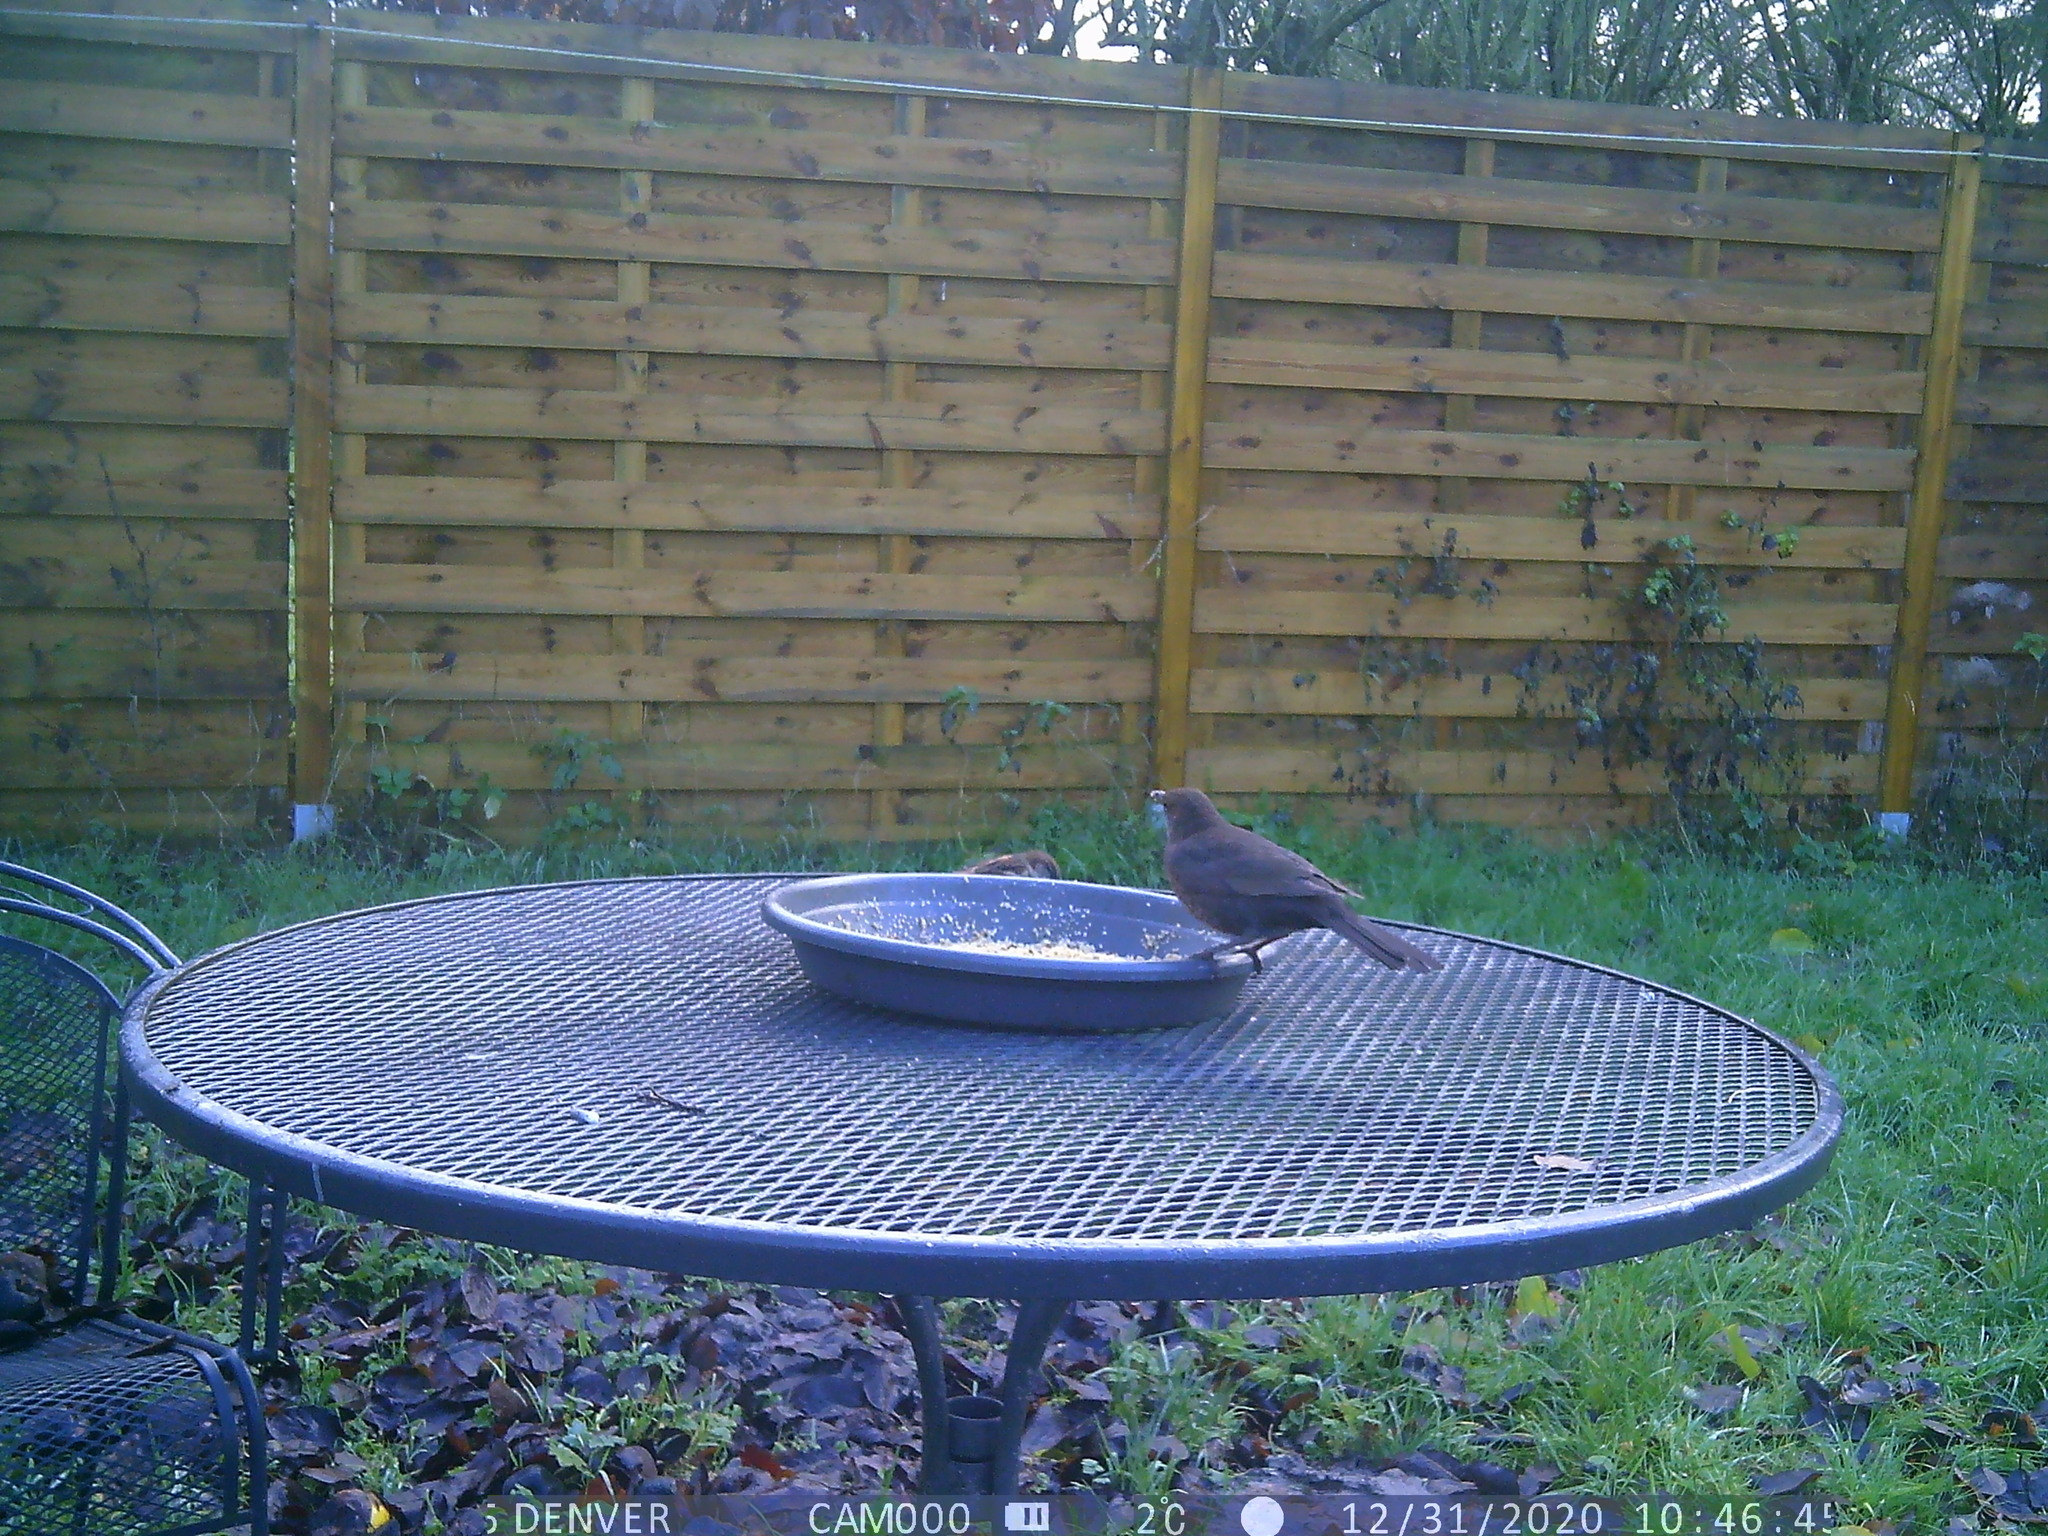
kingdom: Animalia
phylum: Chordata
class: Aves
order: Passeriformes
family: Turdidae
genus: Turdus
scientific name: Turdus merula
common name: Common blackbird
